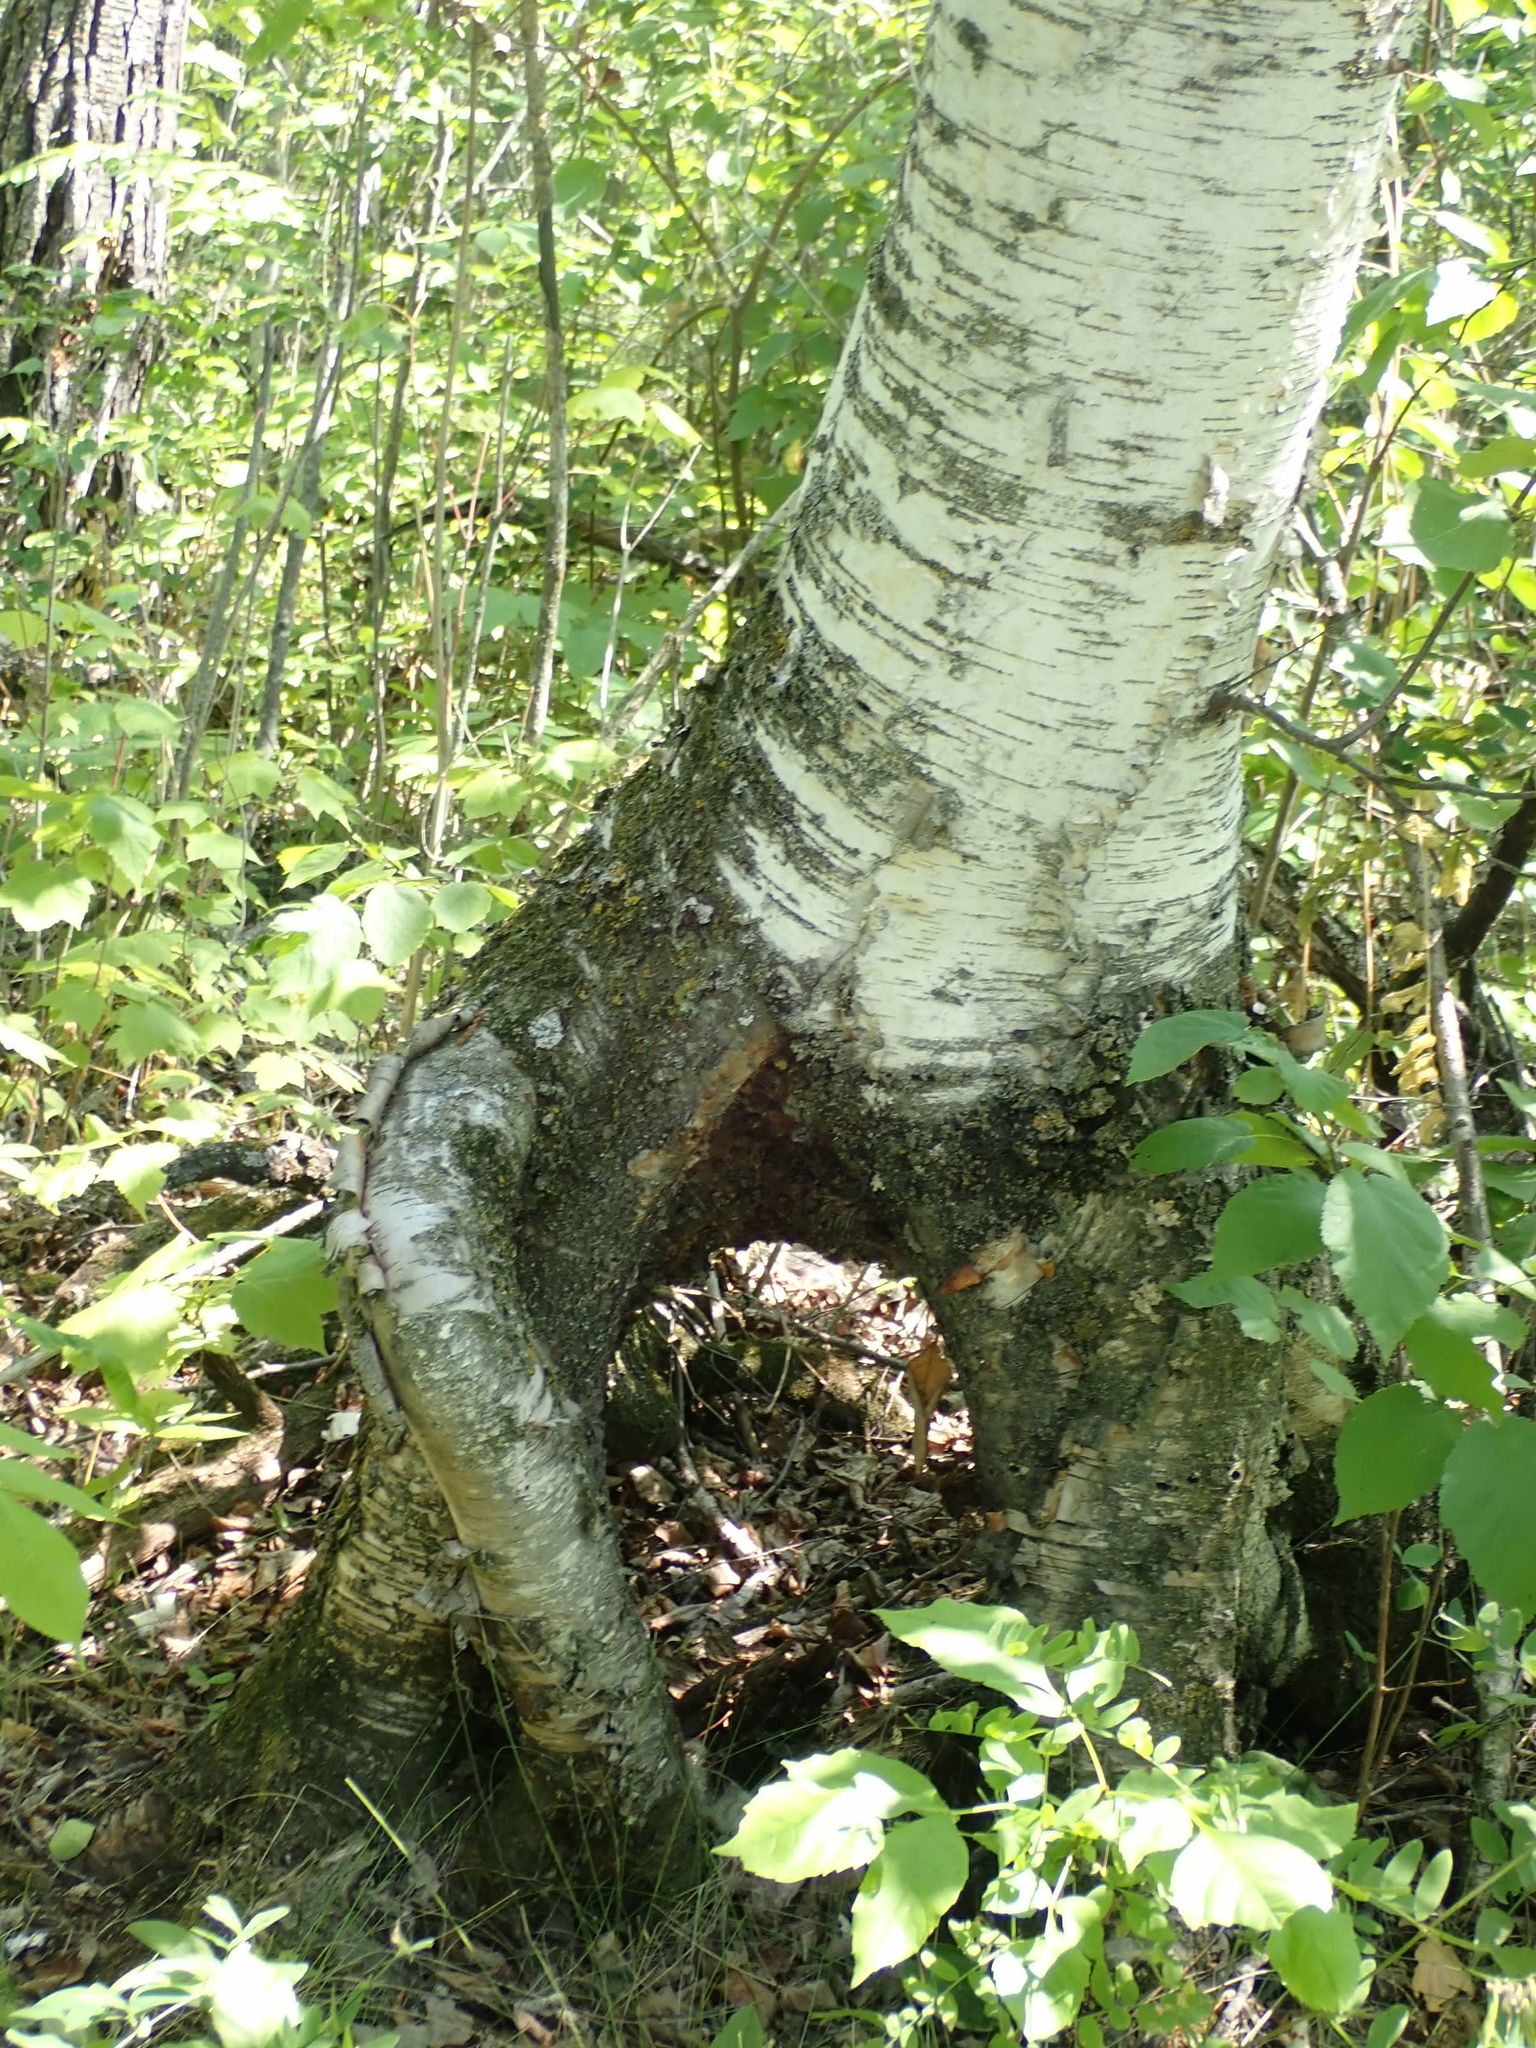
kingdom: Plantae
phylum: Tracheophyta
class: Magnoliopsida
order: Fagales
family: Betulaceae
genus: Betula
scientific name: Betula papyrifera
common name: Paper birch
